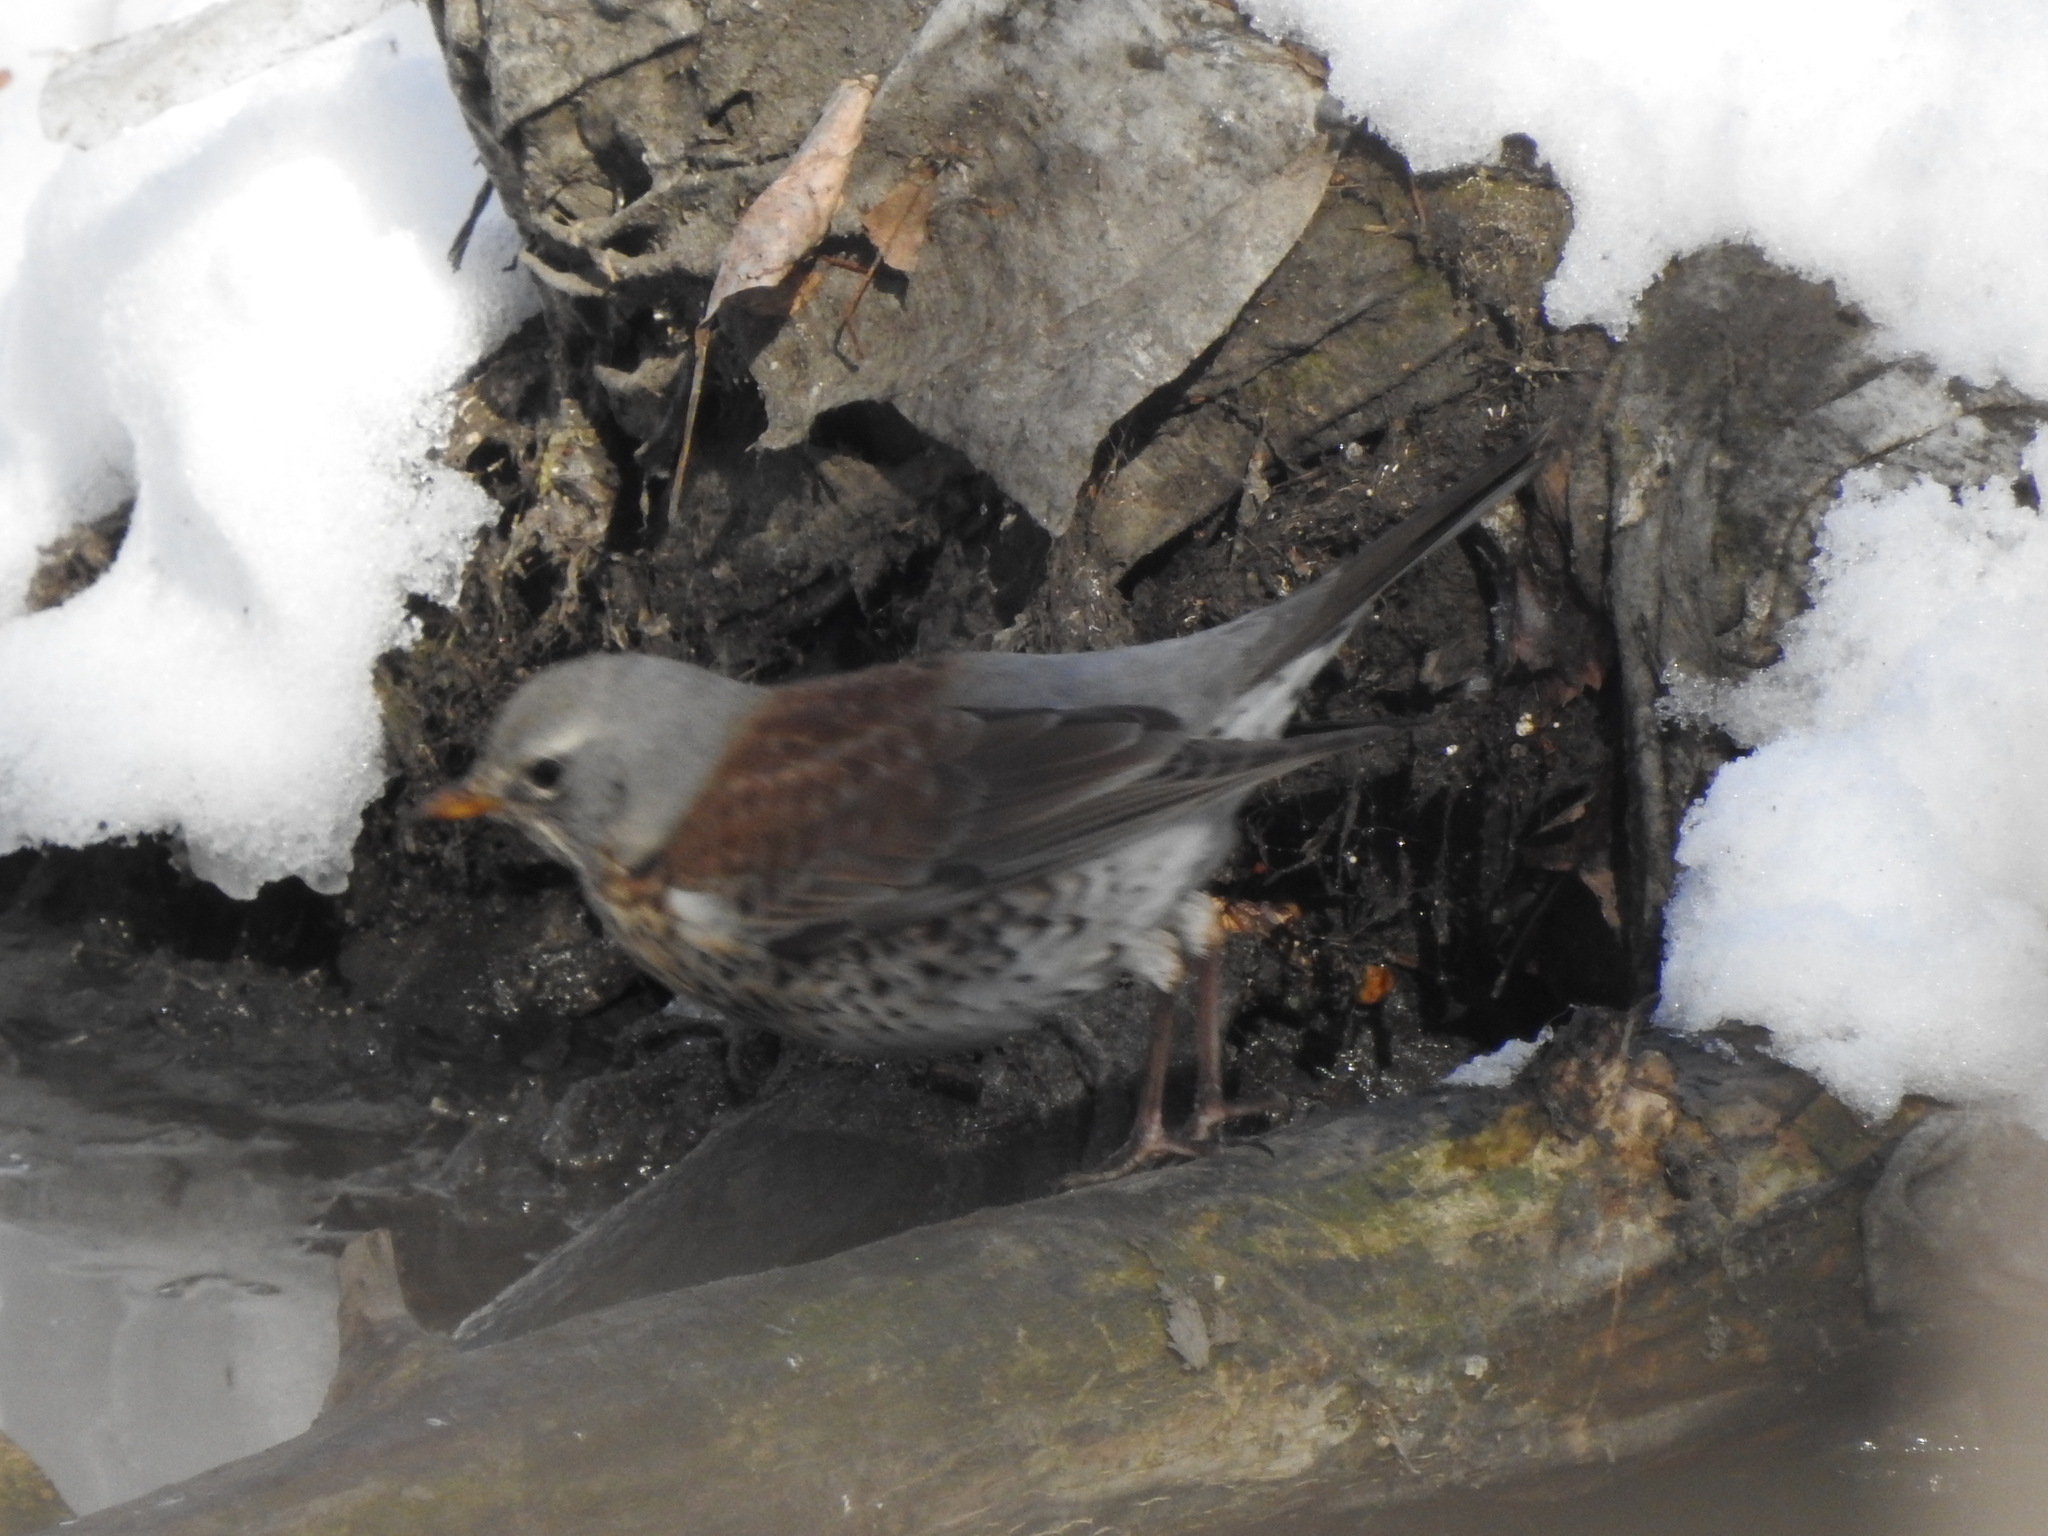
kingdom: Animalia
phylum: Chordata
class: Aves
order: Passeriformes
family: Turdidae
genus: Turdus
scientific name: Turdus pilaris
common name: Fieldfare
